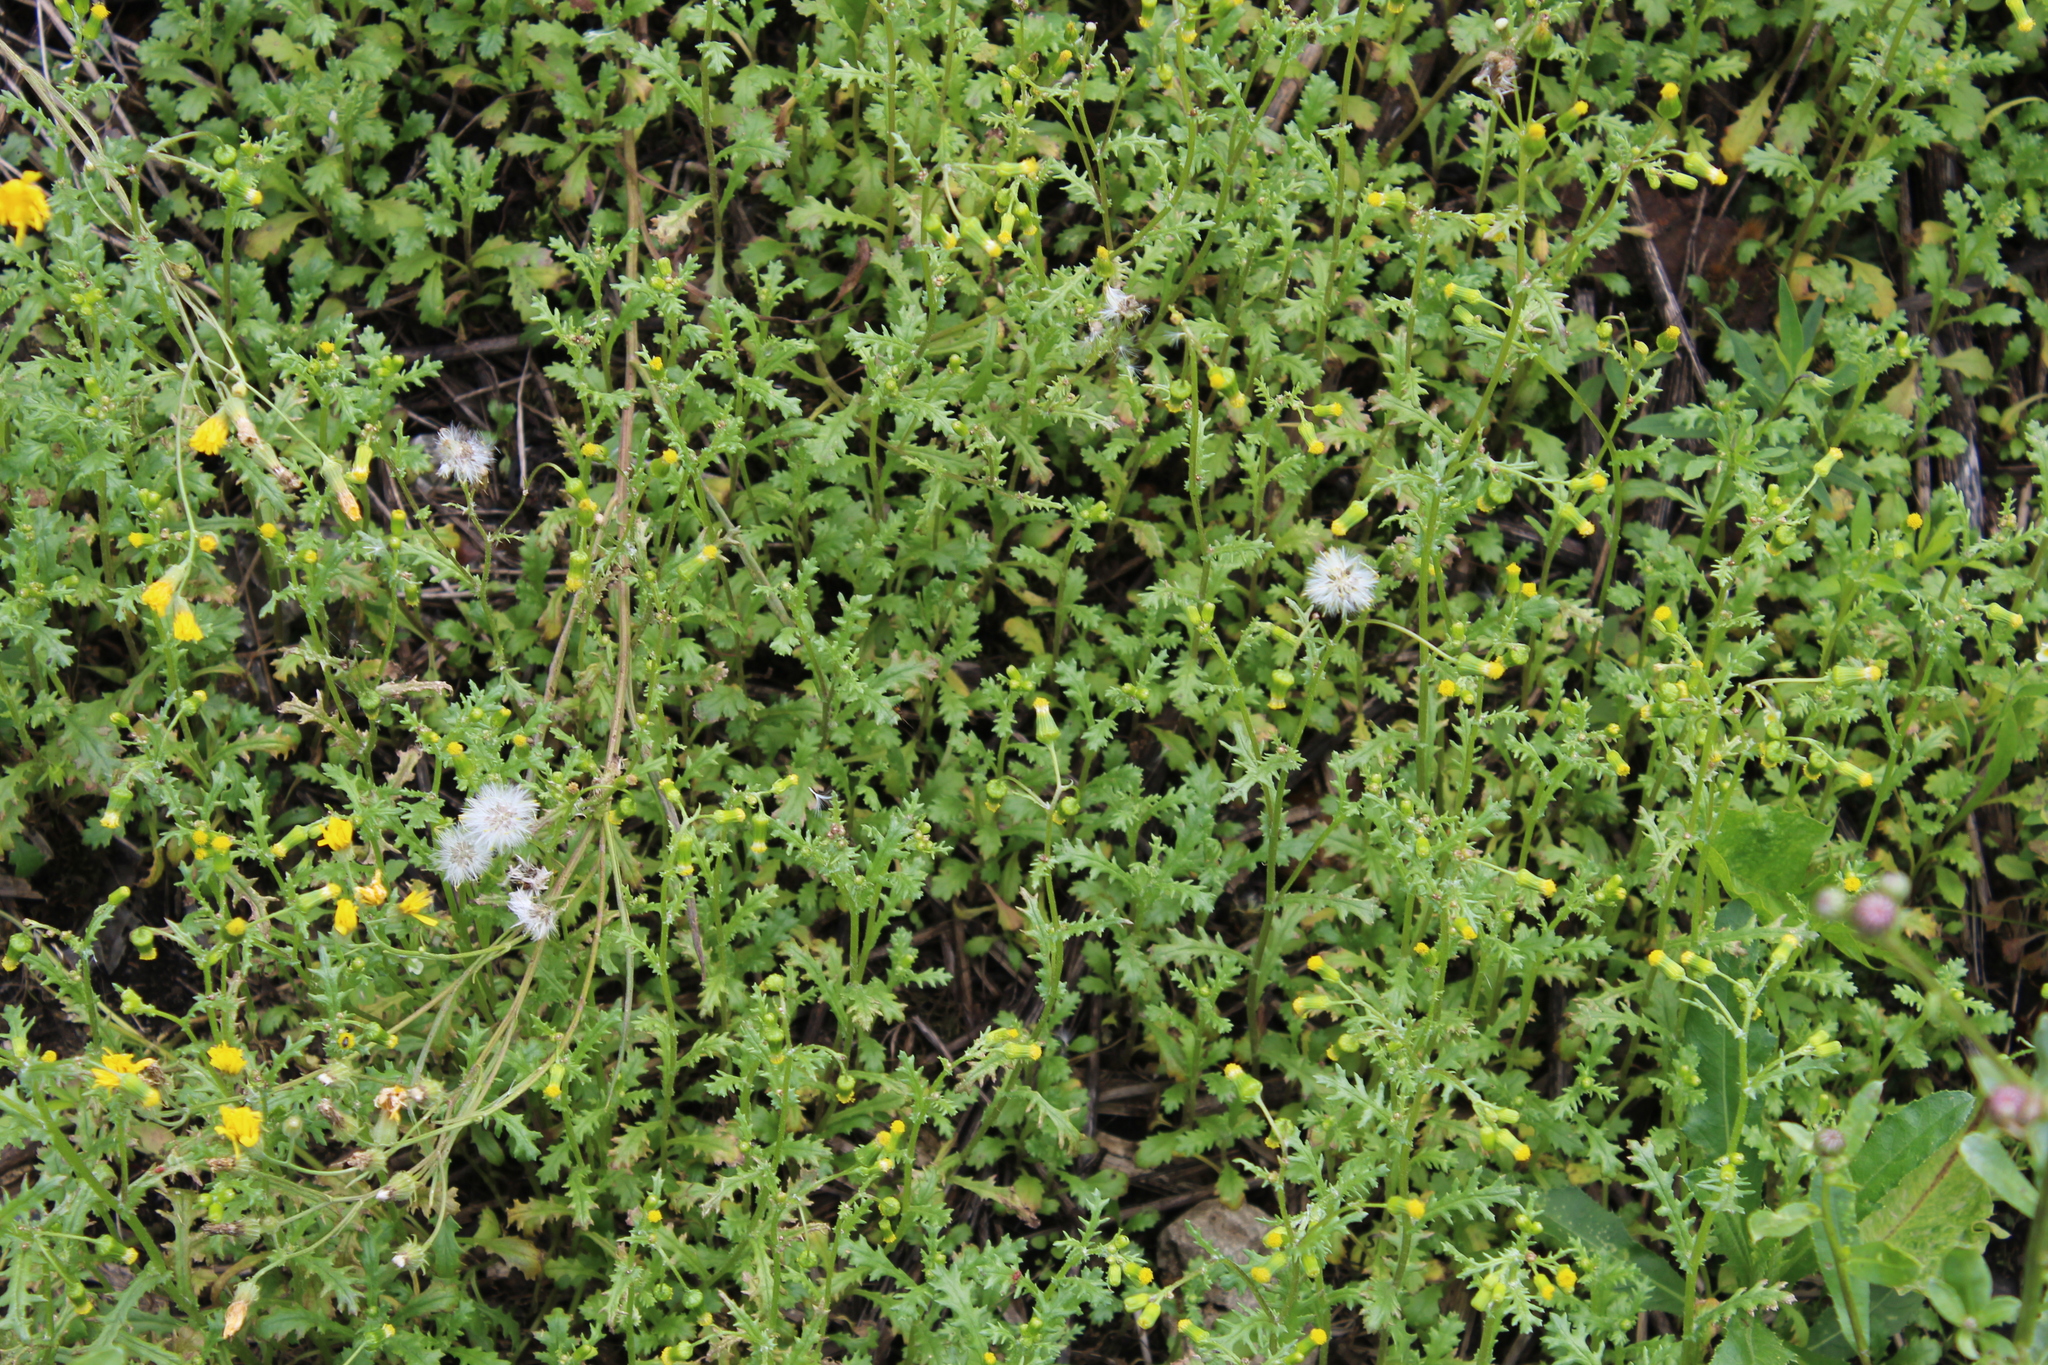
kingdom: Plantae
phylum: Tracheophyta
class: Magnoliopsida
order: Asterales
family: Asteraceae
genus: Senecio
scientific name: Senecio vulgaris
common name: Old-man-in-the-spring
